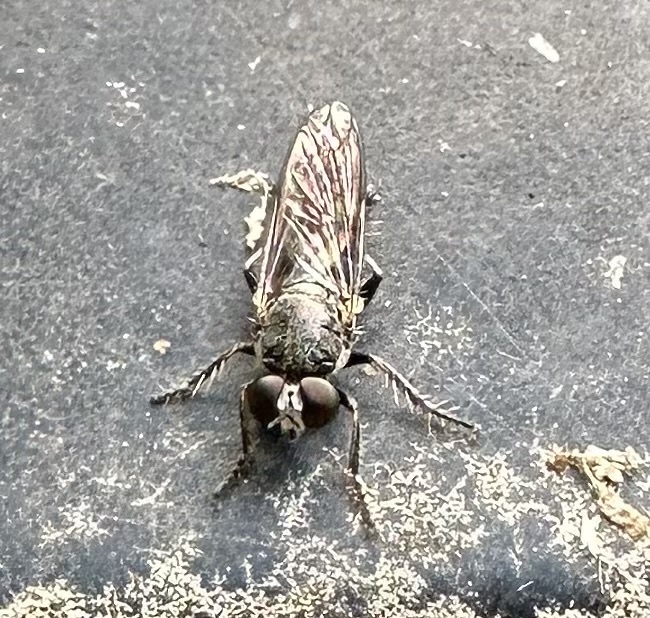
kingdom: Animalia
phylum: Arthropoda
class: Insecta
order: Diptera
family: Asilidae
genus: Atomosia
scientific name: Atomosia puella
